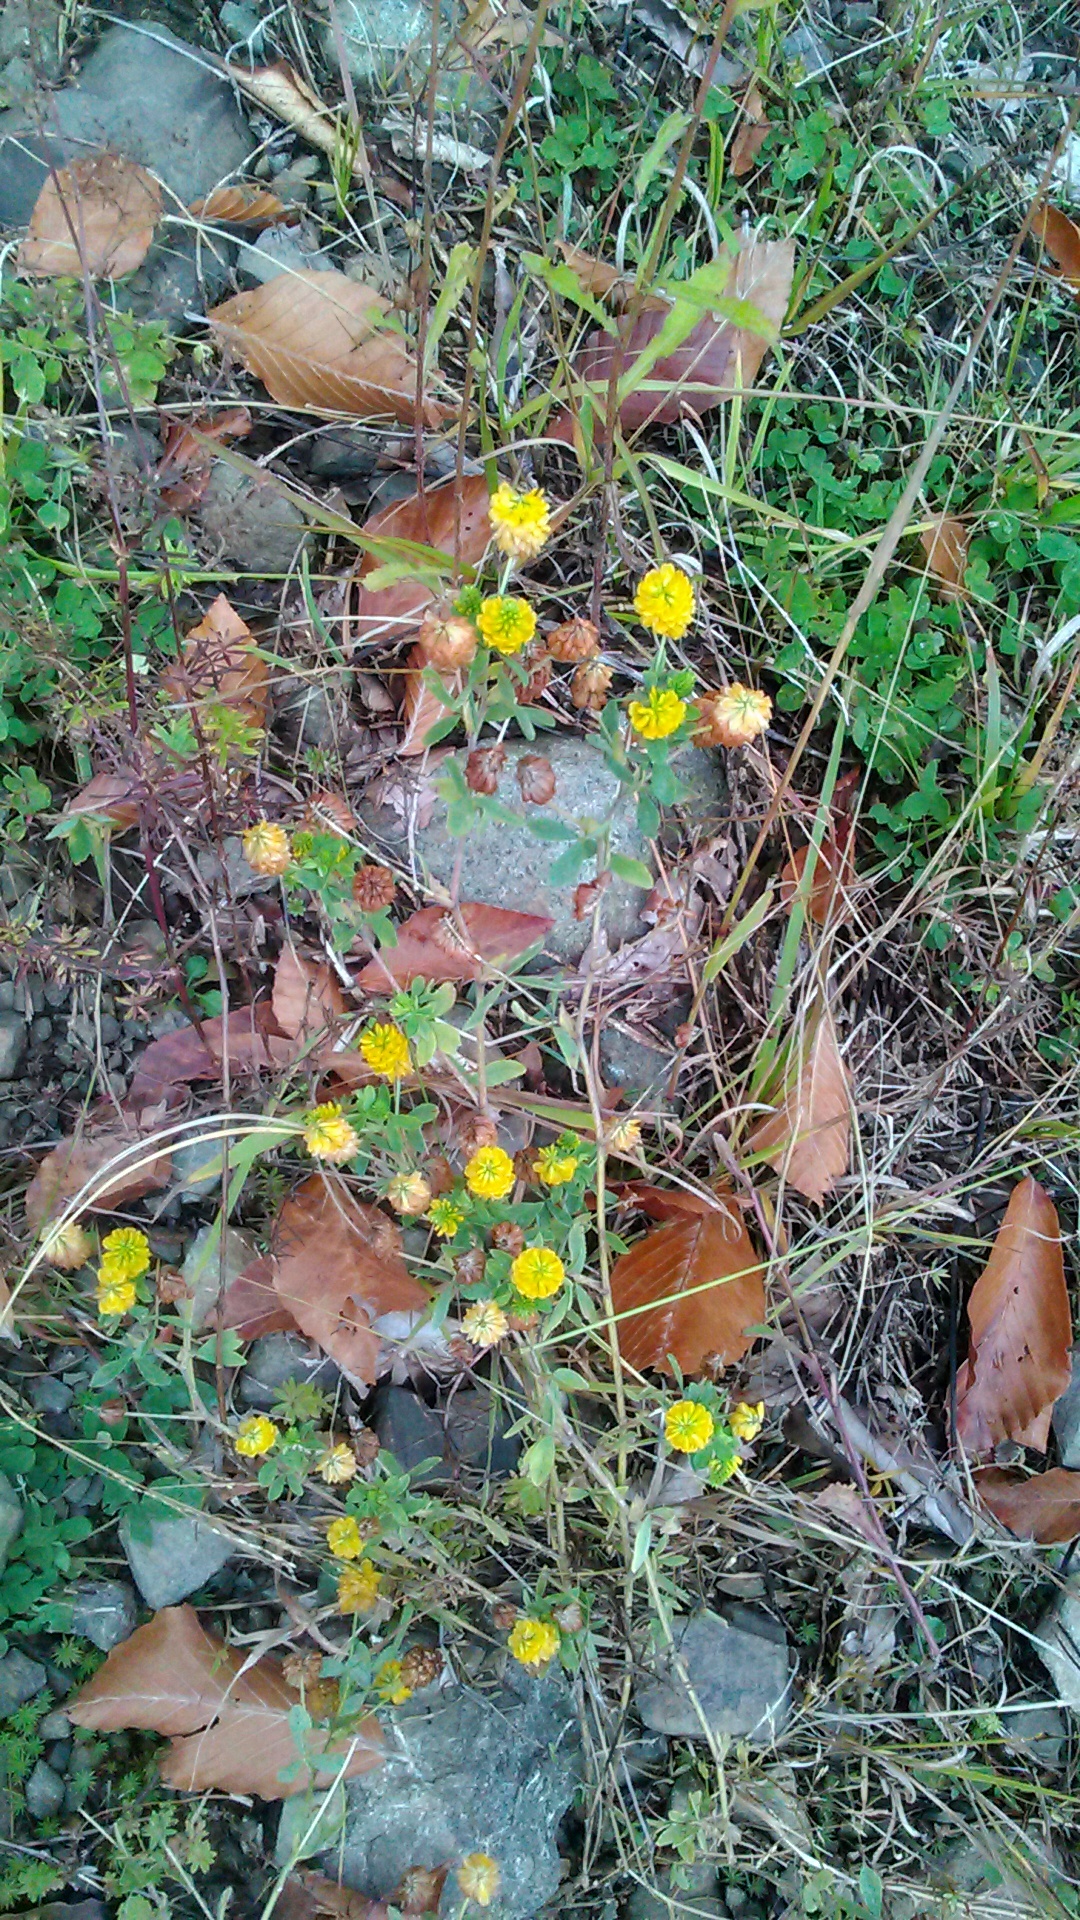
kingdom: Plantae
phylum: Tracheophyta
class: Magnoliopsida
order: Fabales
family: Fabaceae
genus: Trifolium
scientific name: Trifolium aureum
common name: Golden clover
